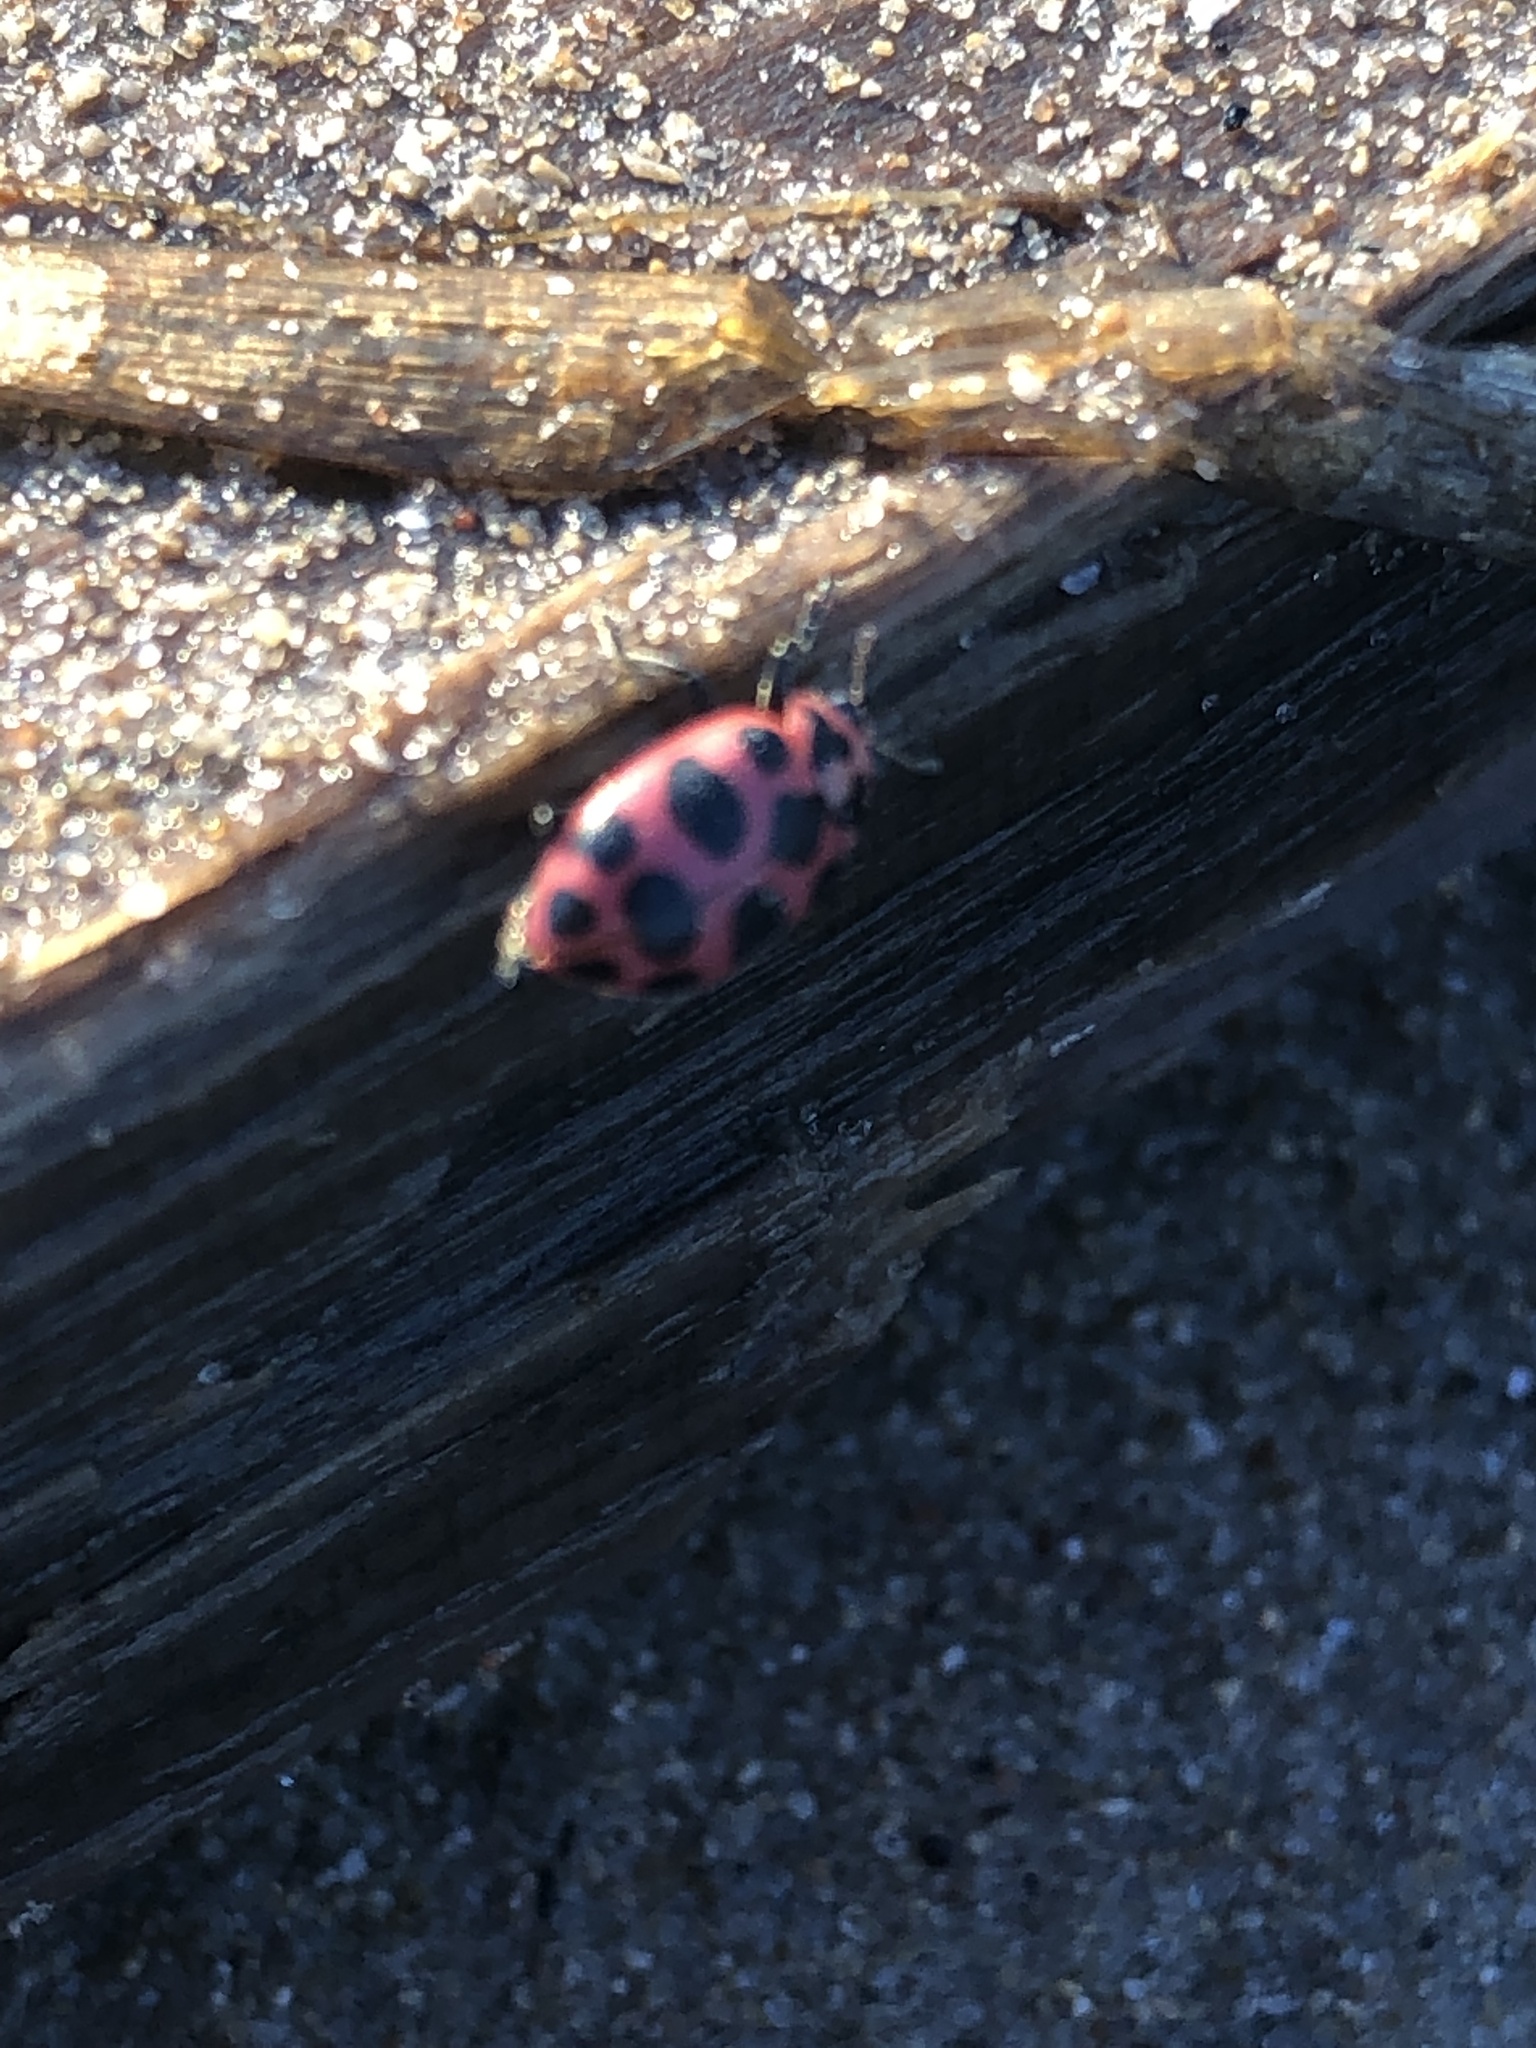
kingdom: Animalia
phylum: Arthropoda
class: Insecta
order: Coleoptera
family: Coccinellidae
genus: Coleomegilla
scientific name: Coleomegilla maculata
